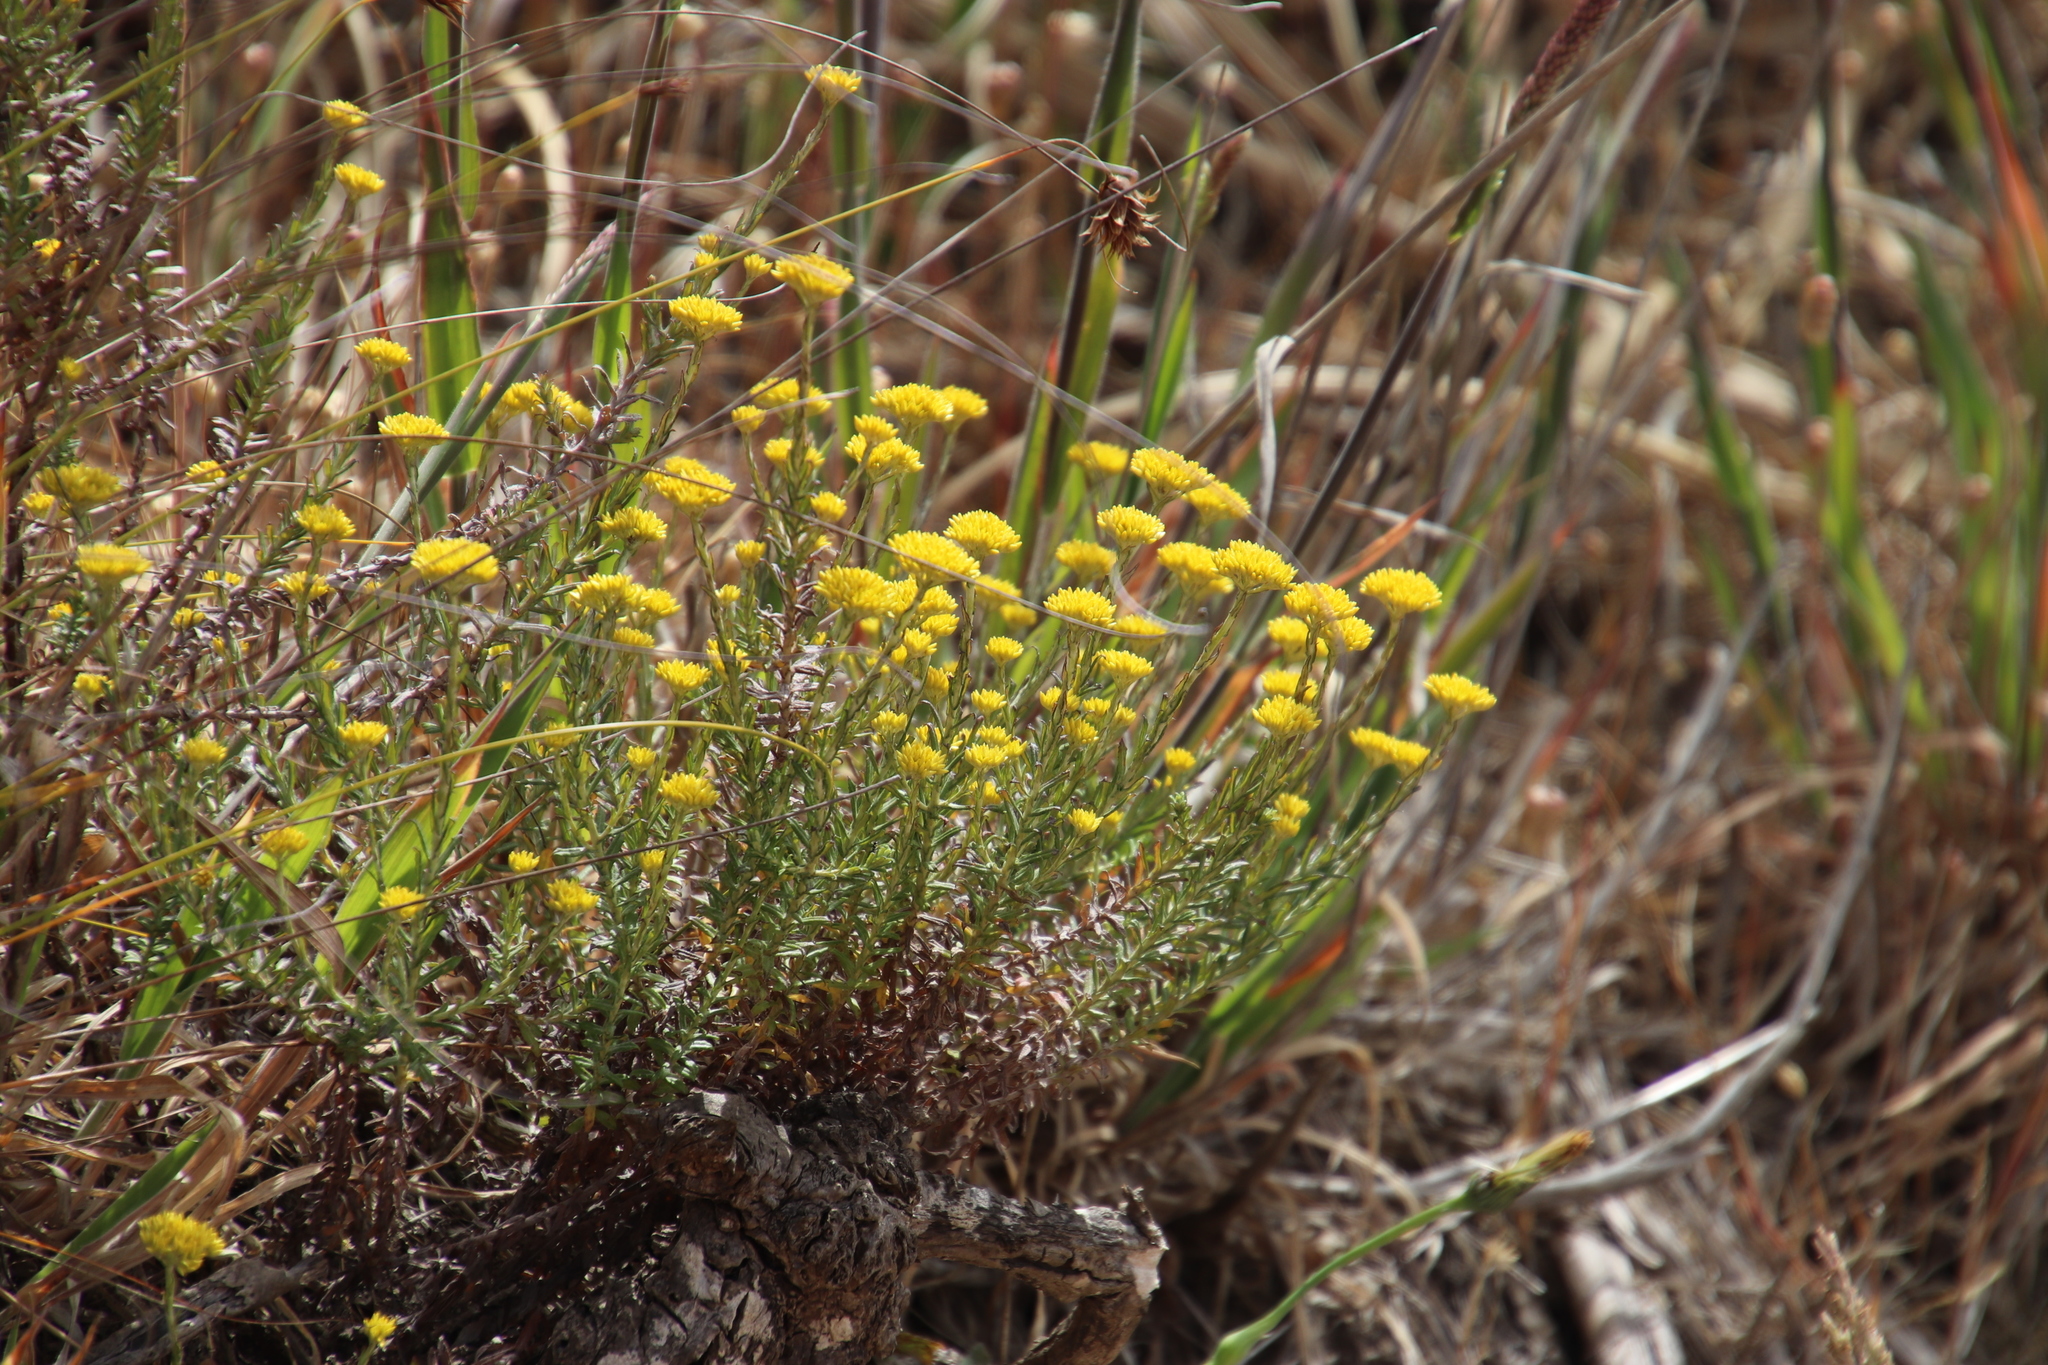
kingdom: Plantae
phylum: Tracheophyta
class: Magnoliopsida
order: Asterales
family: Asteraceae
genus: Helichrysum
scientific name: Helichrysum cymosum
